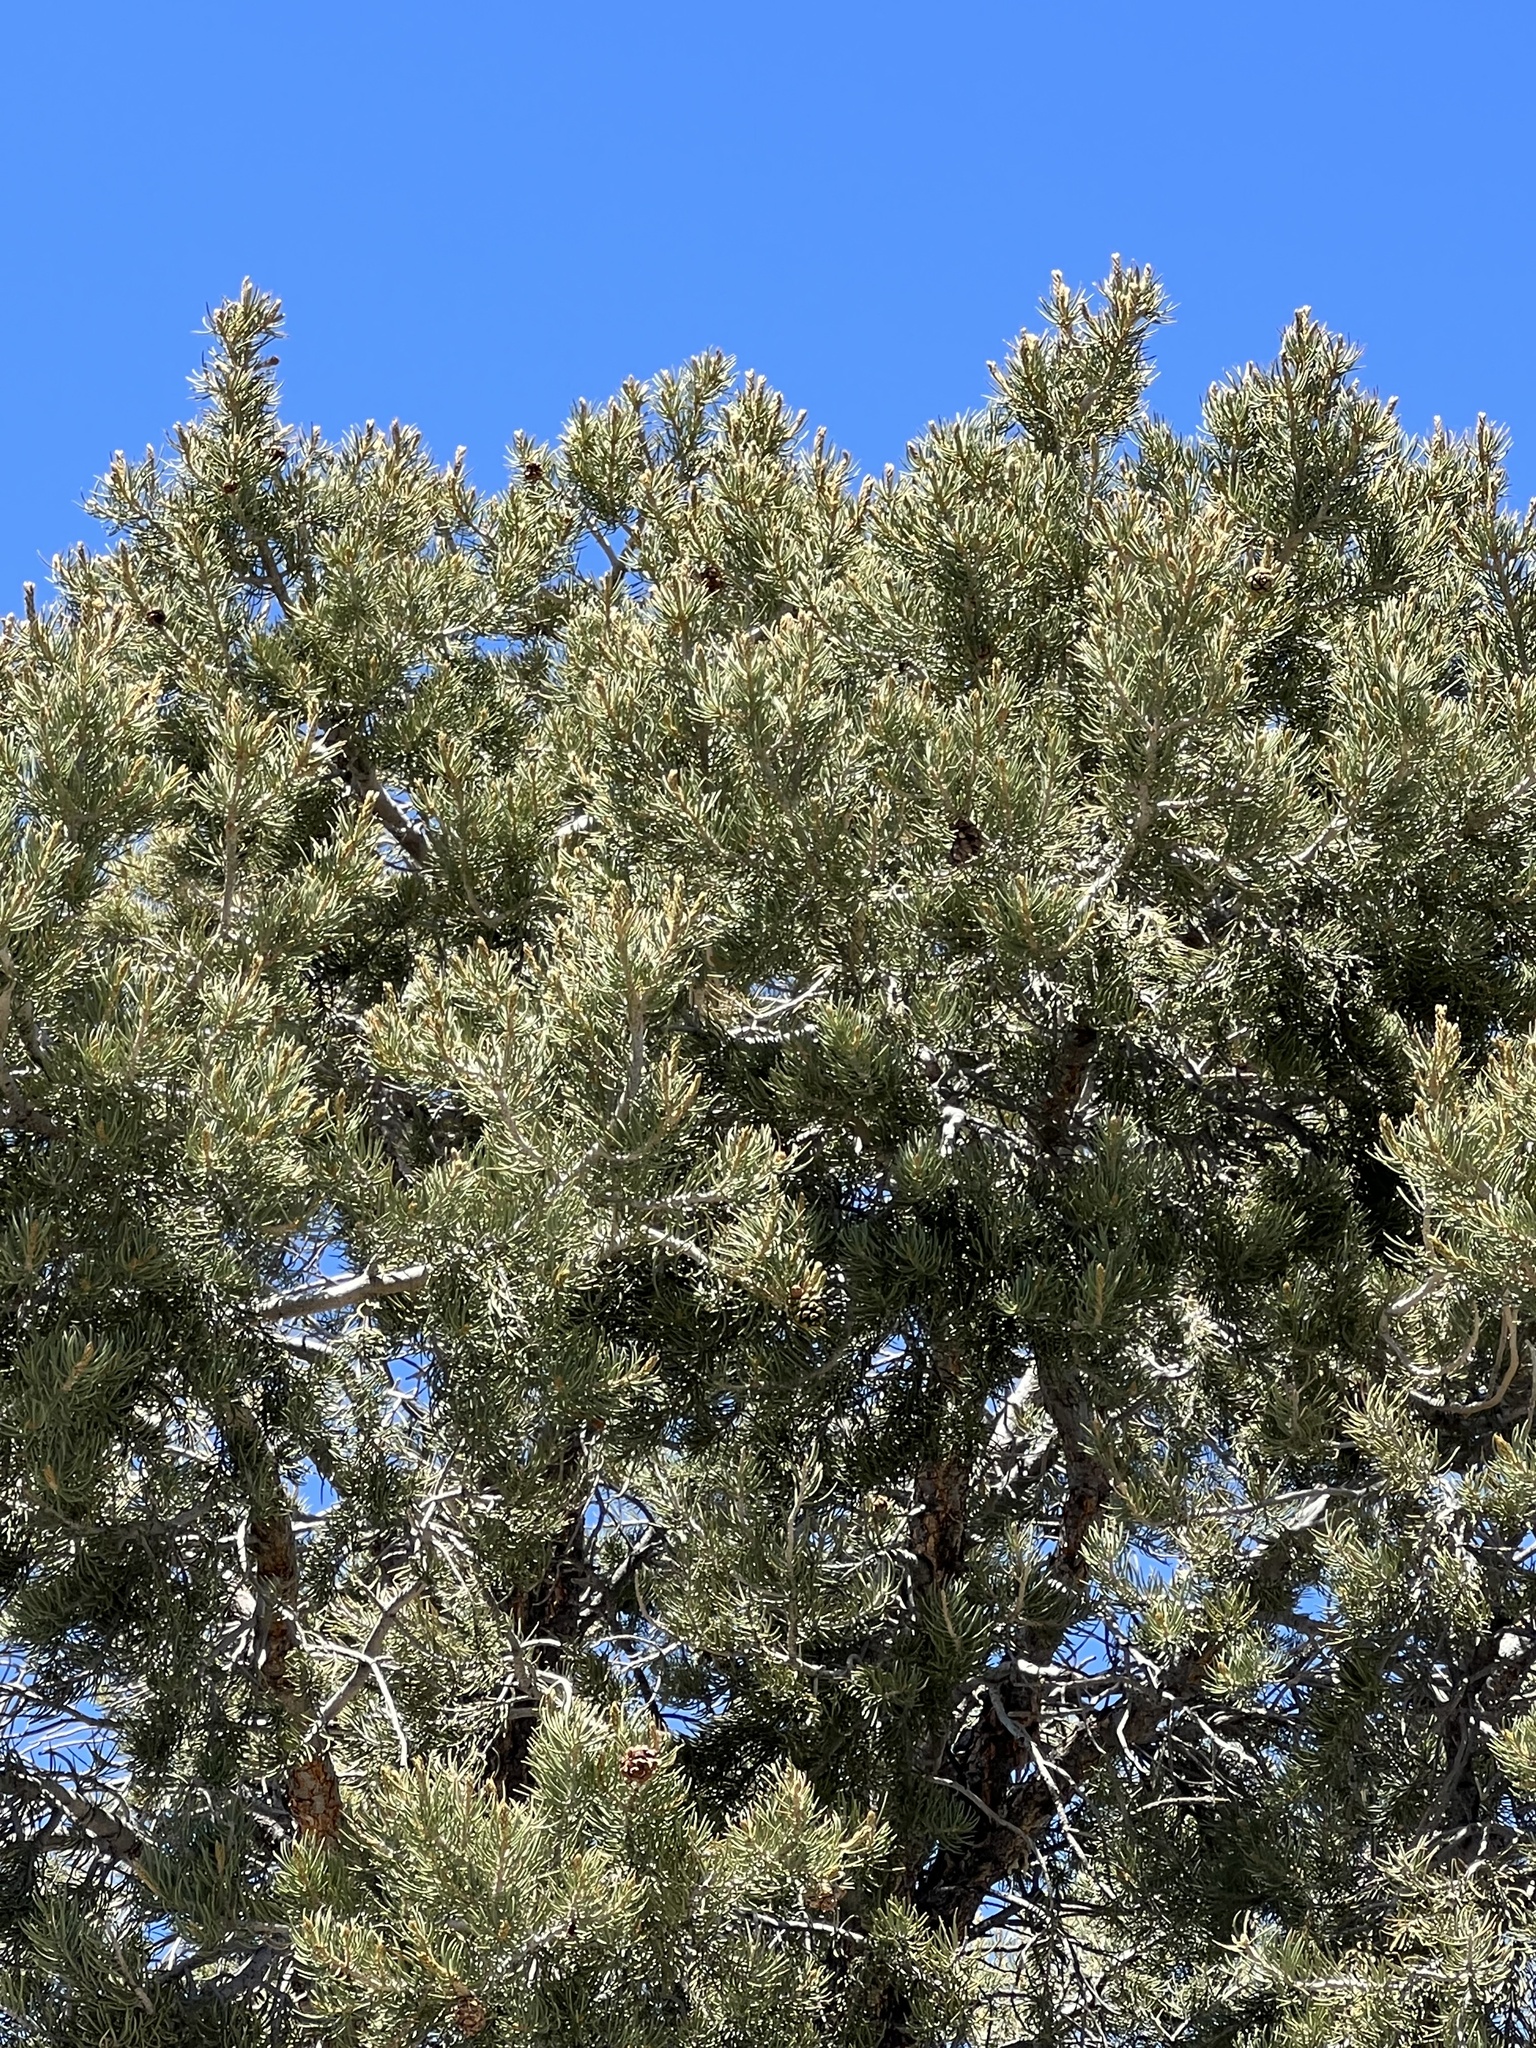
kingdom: Plantae
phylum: Tracheophyta
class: Pinopsida
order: Pinales
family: Pinaceae
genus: Pinus
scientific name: Pinus monophylla
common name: One-leaved nut pine
